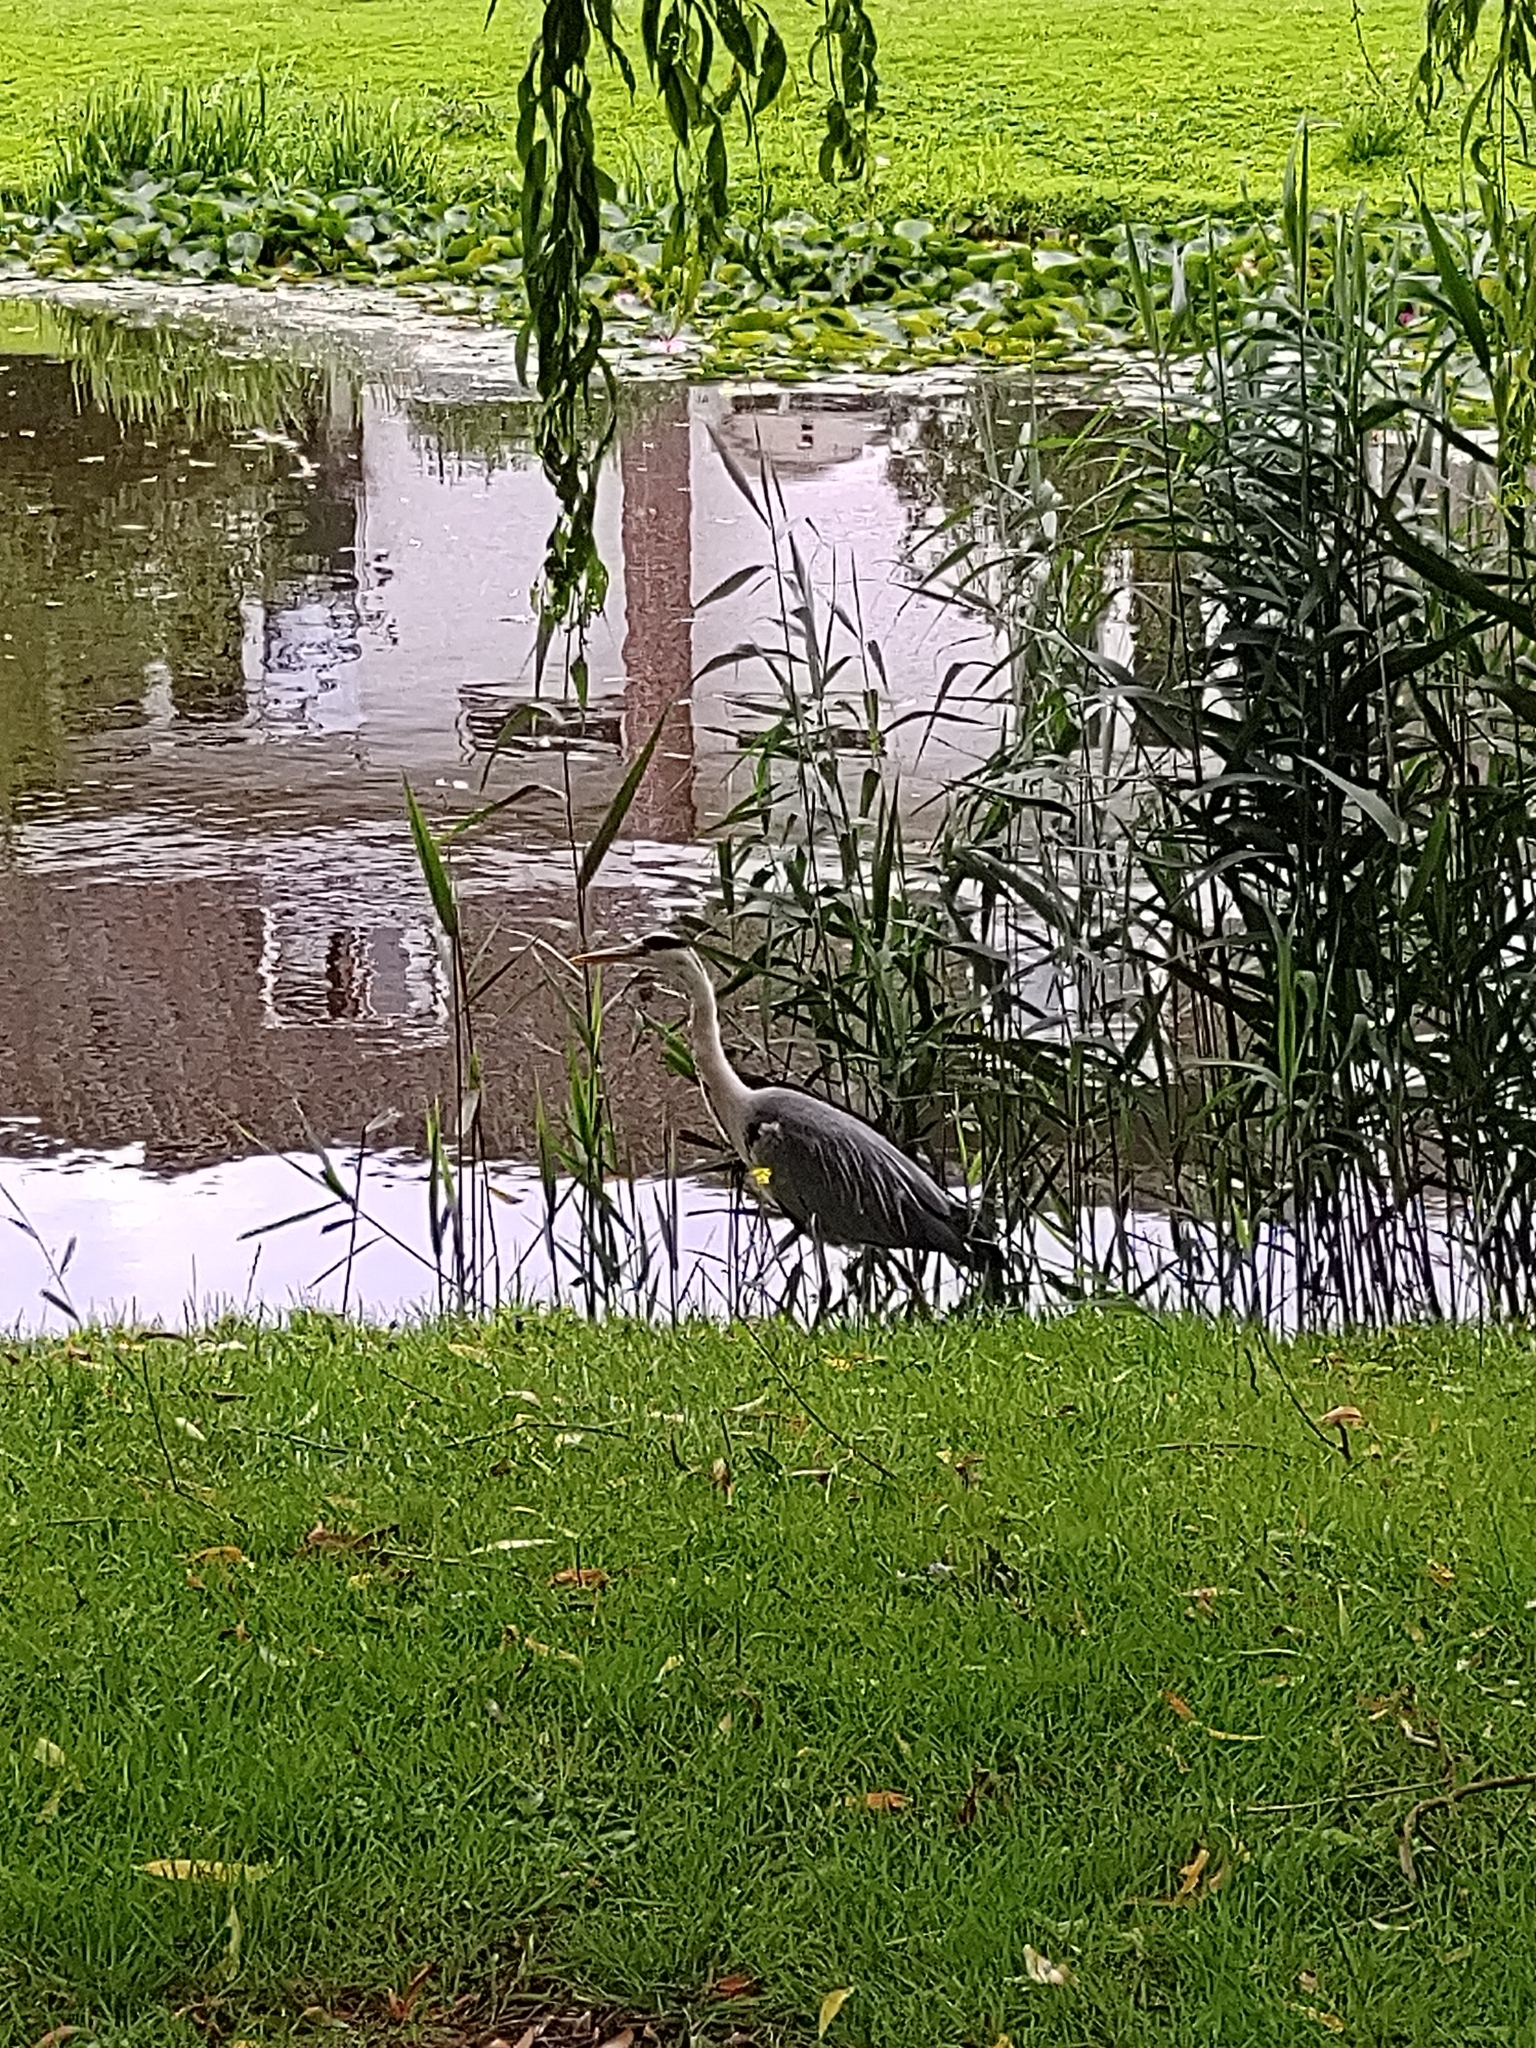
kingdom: Animalia
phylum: Chordata
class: Aves
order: Pelecaniformes
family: Ardeidae
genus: Ardea
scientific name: Ardea cinerea
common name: Grey heron
